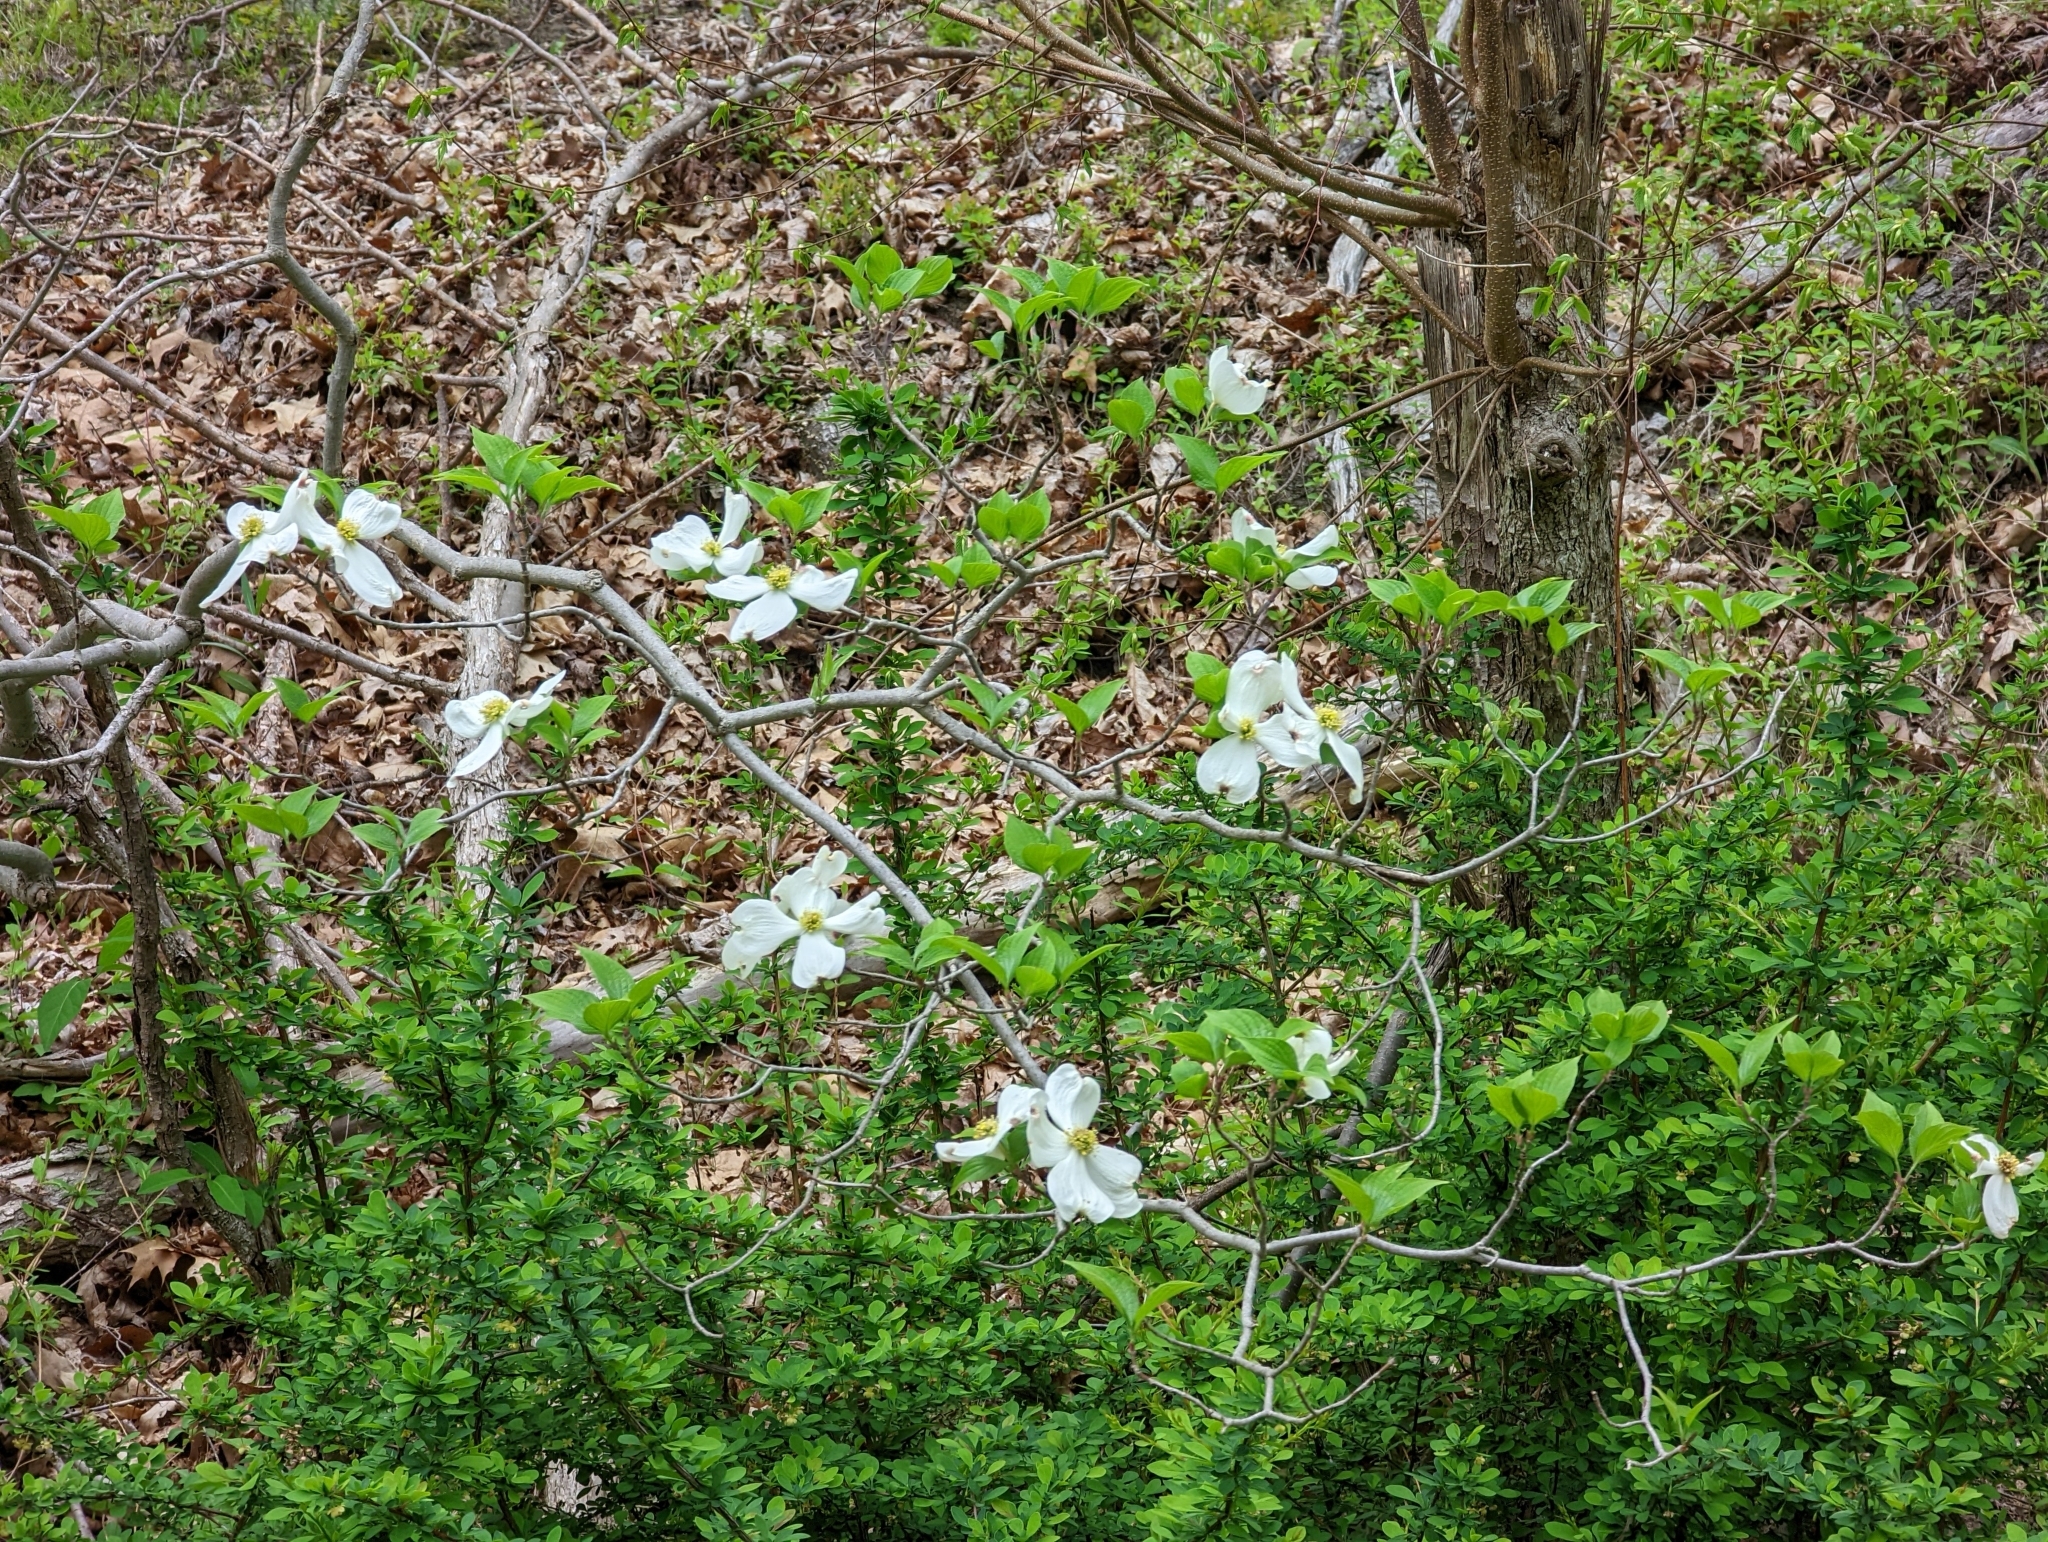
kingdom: Plantae
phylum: Tracheophyta
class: Magnoliopsida
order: Cornales
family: Cornaceae
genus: Cornus
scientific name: Cornus florida
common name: Flowering dogwood
